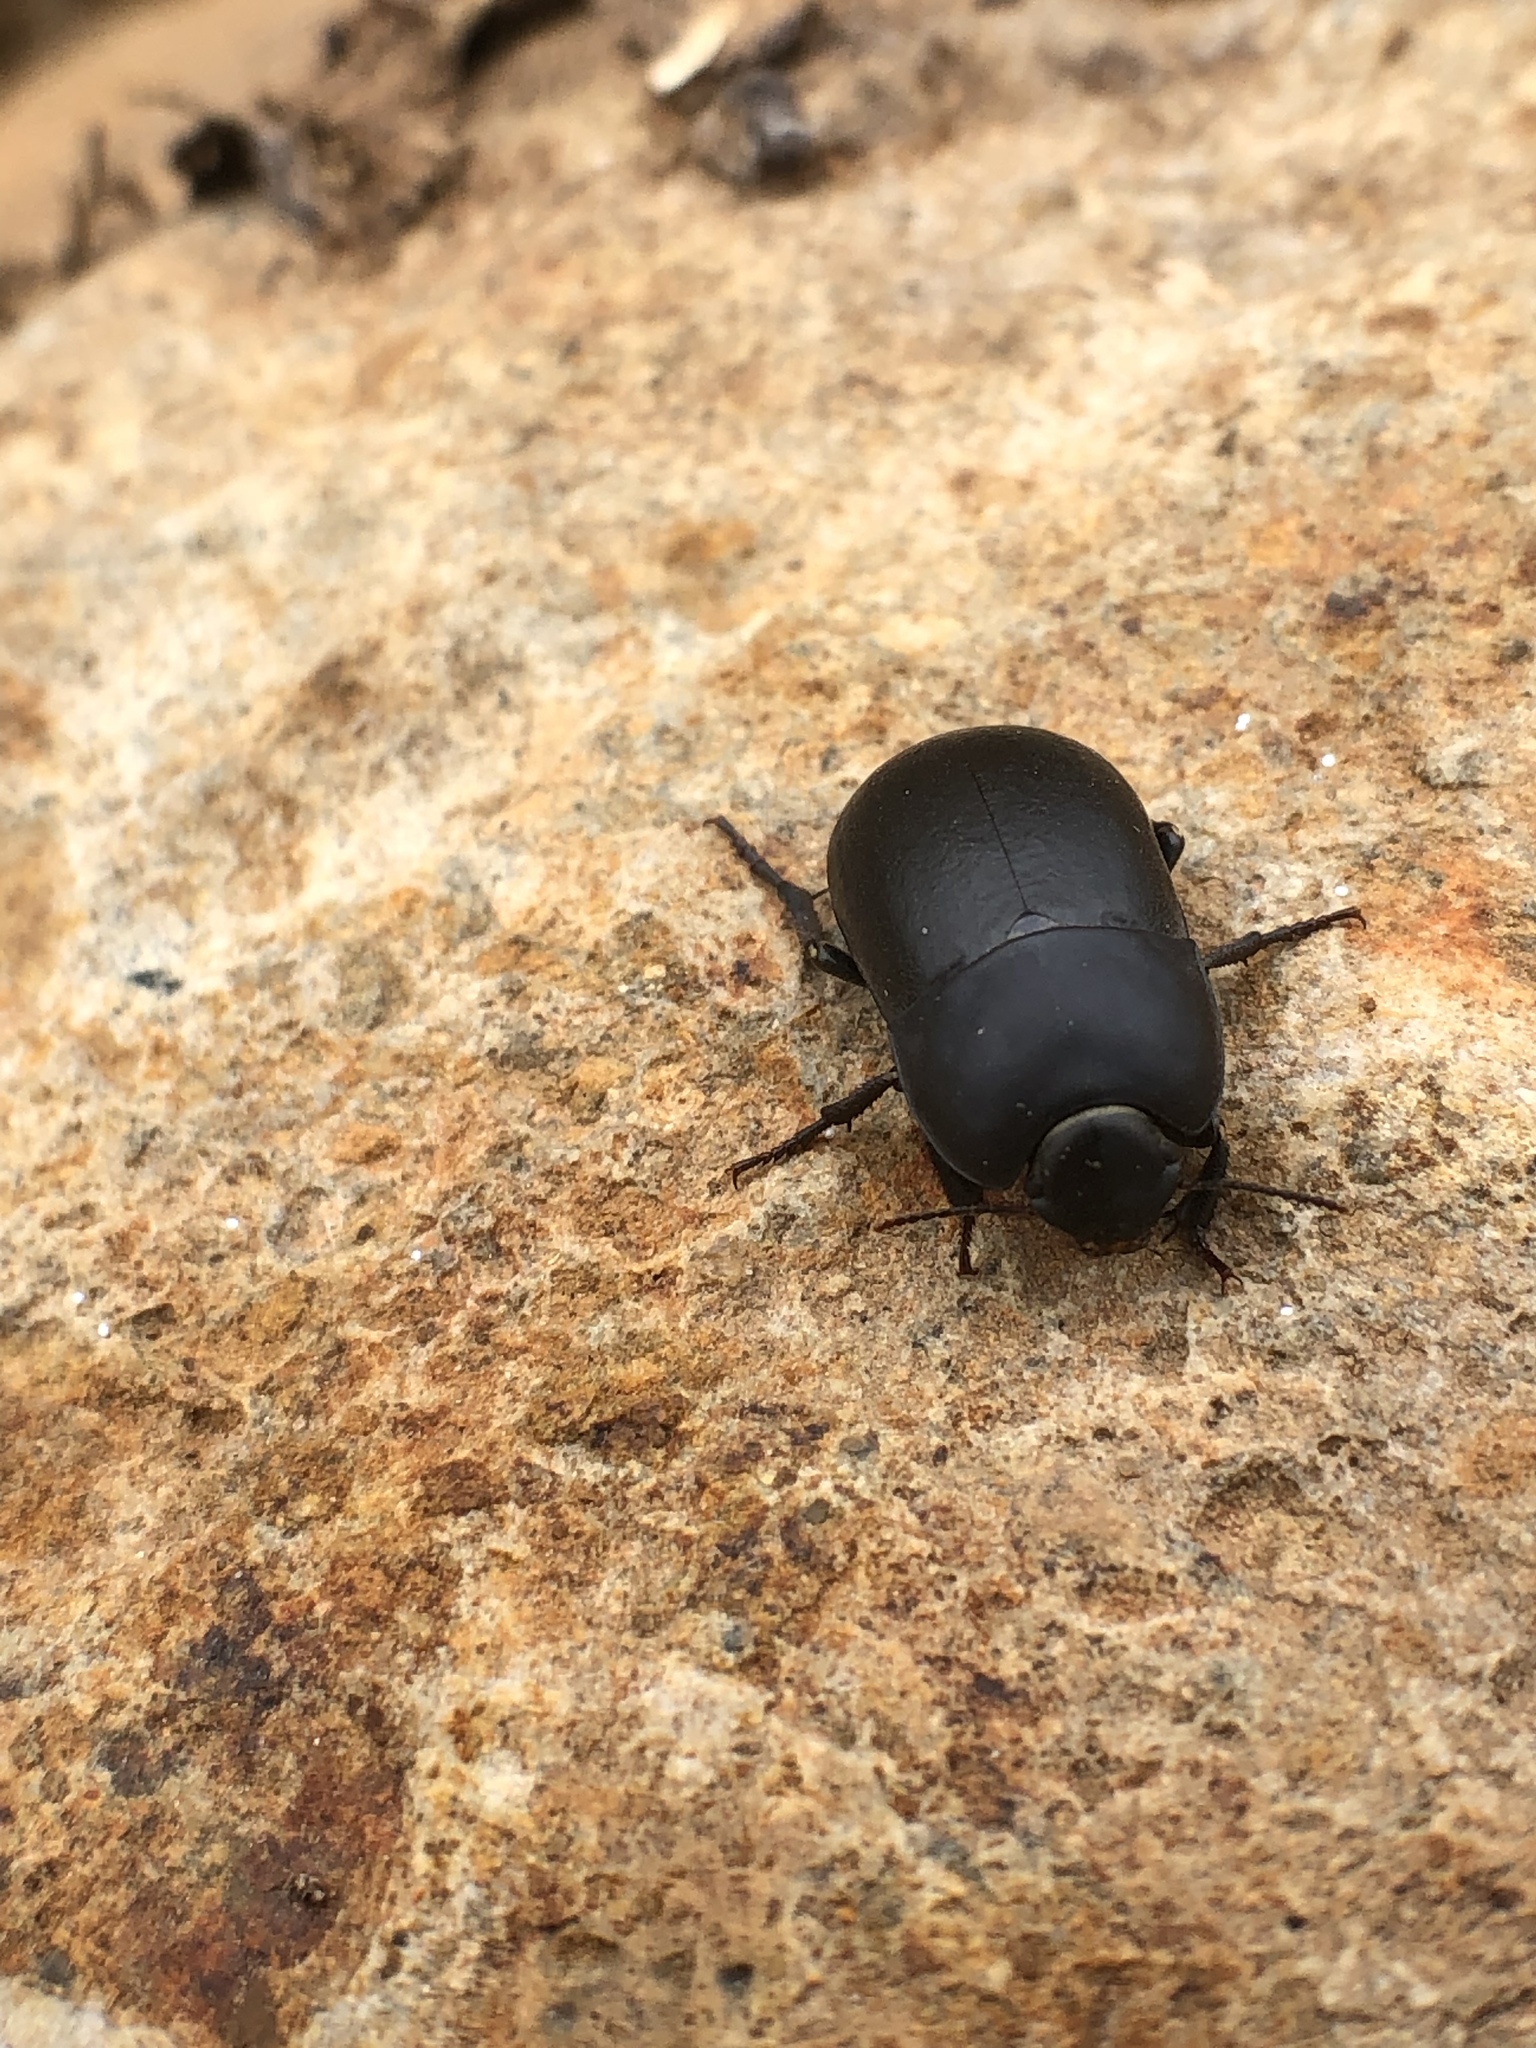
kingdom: Animalia
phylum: Arthropoda
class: Insecta
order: Coleoptera
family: Tenebrionidae
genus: Coniontis
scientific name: Coniontis
